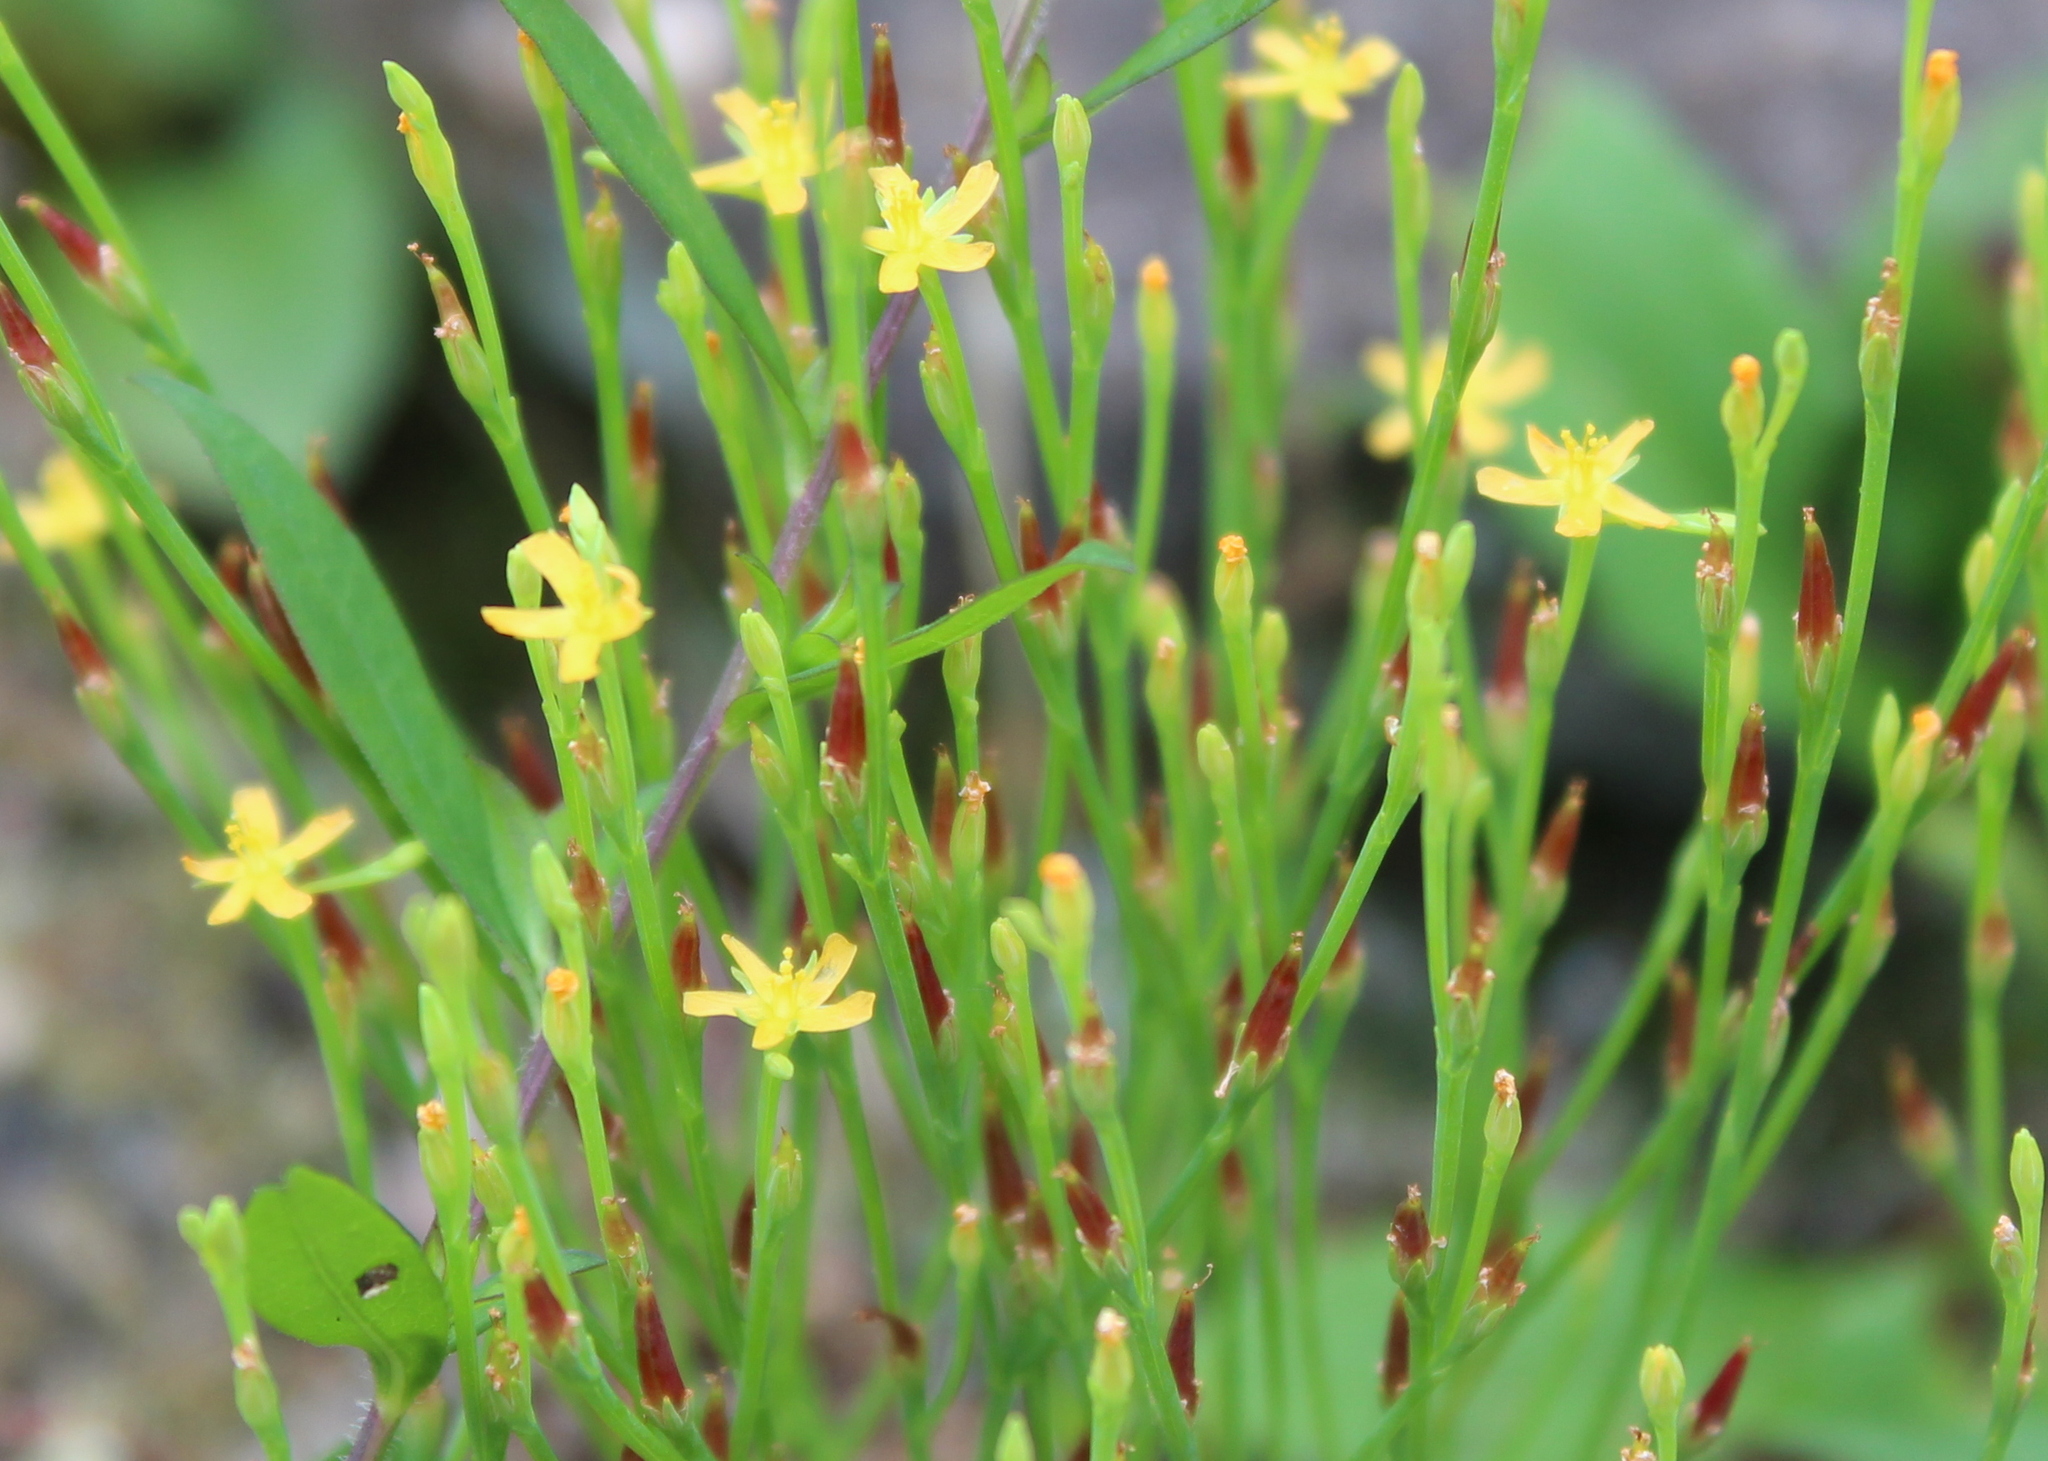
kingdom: Plantae
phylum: Tracheophyta
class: Magnoliopsida
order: Malpighiales
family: Hypericaceae
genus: Hypericum
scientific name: Hypericum gentianoides
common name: Gentian-leaved st. john's-wort
